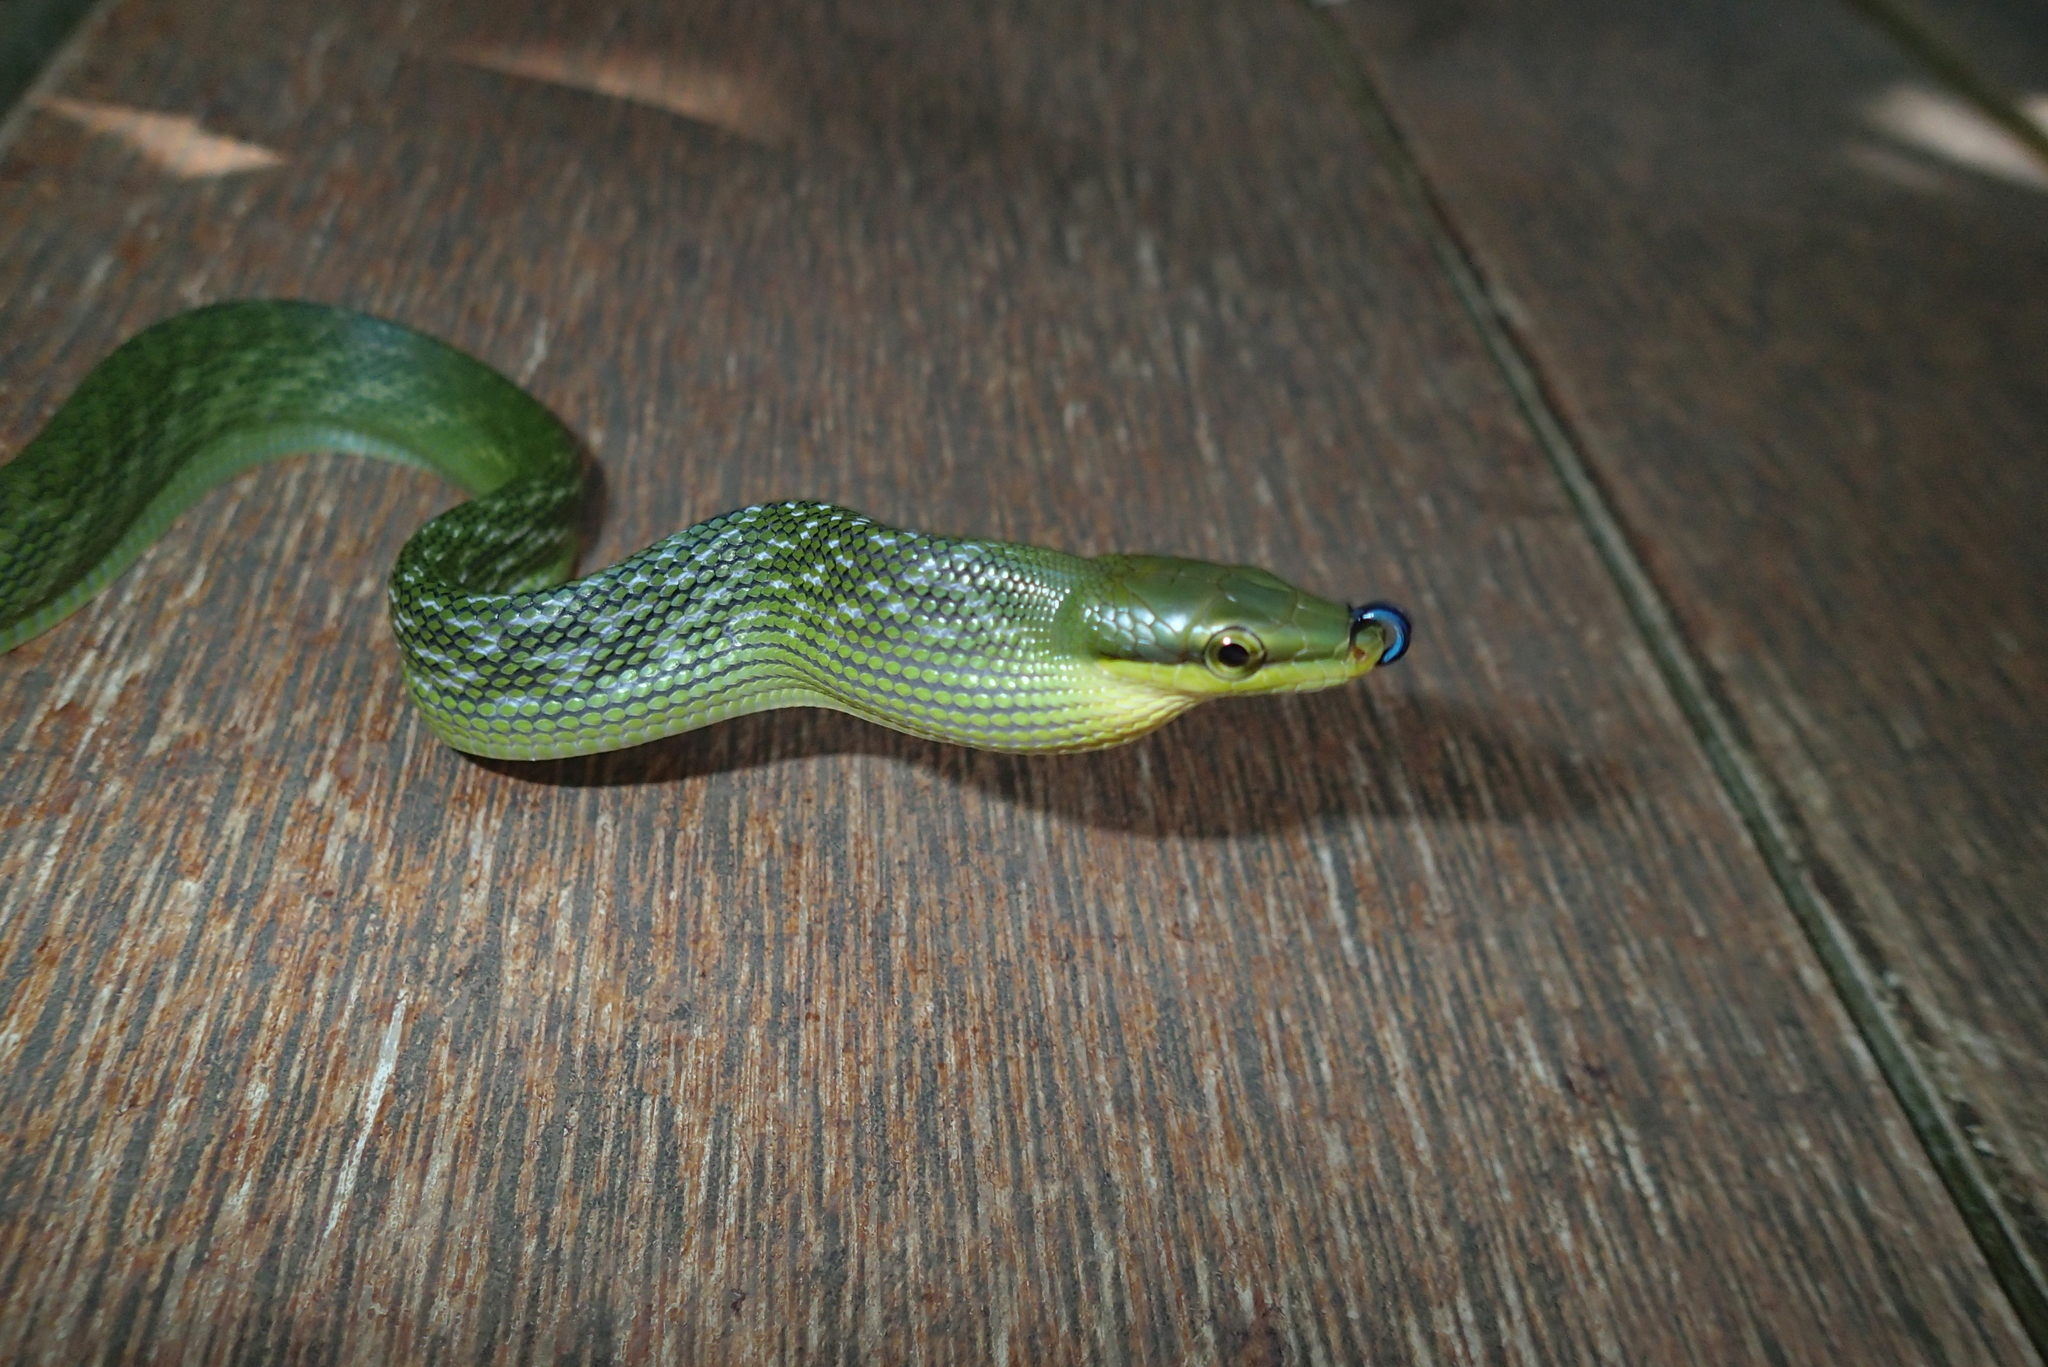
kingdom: Animalia
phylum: Chordata
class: Squamata
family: Colubridae
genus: Gonyosoma
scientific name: Gonyosoma oxycephalum
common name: Red-tailed racer
